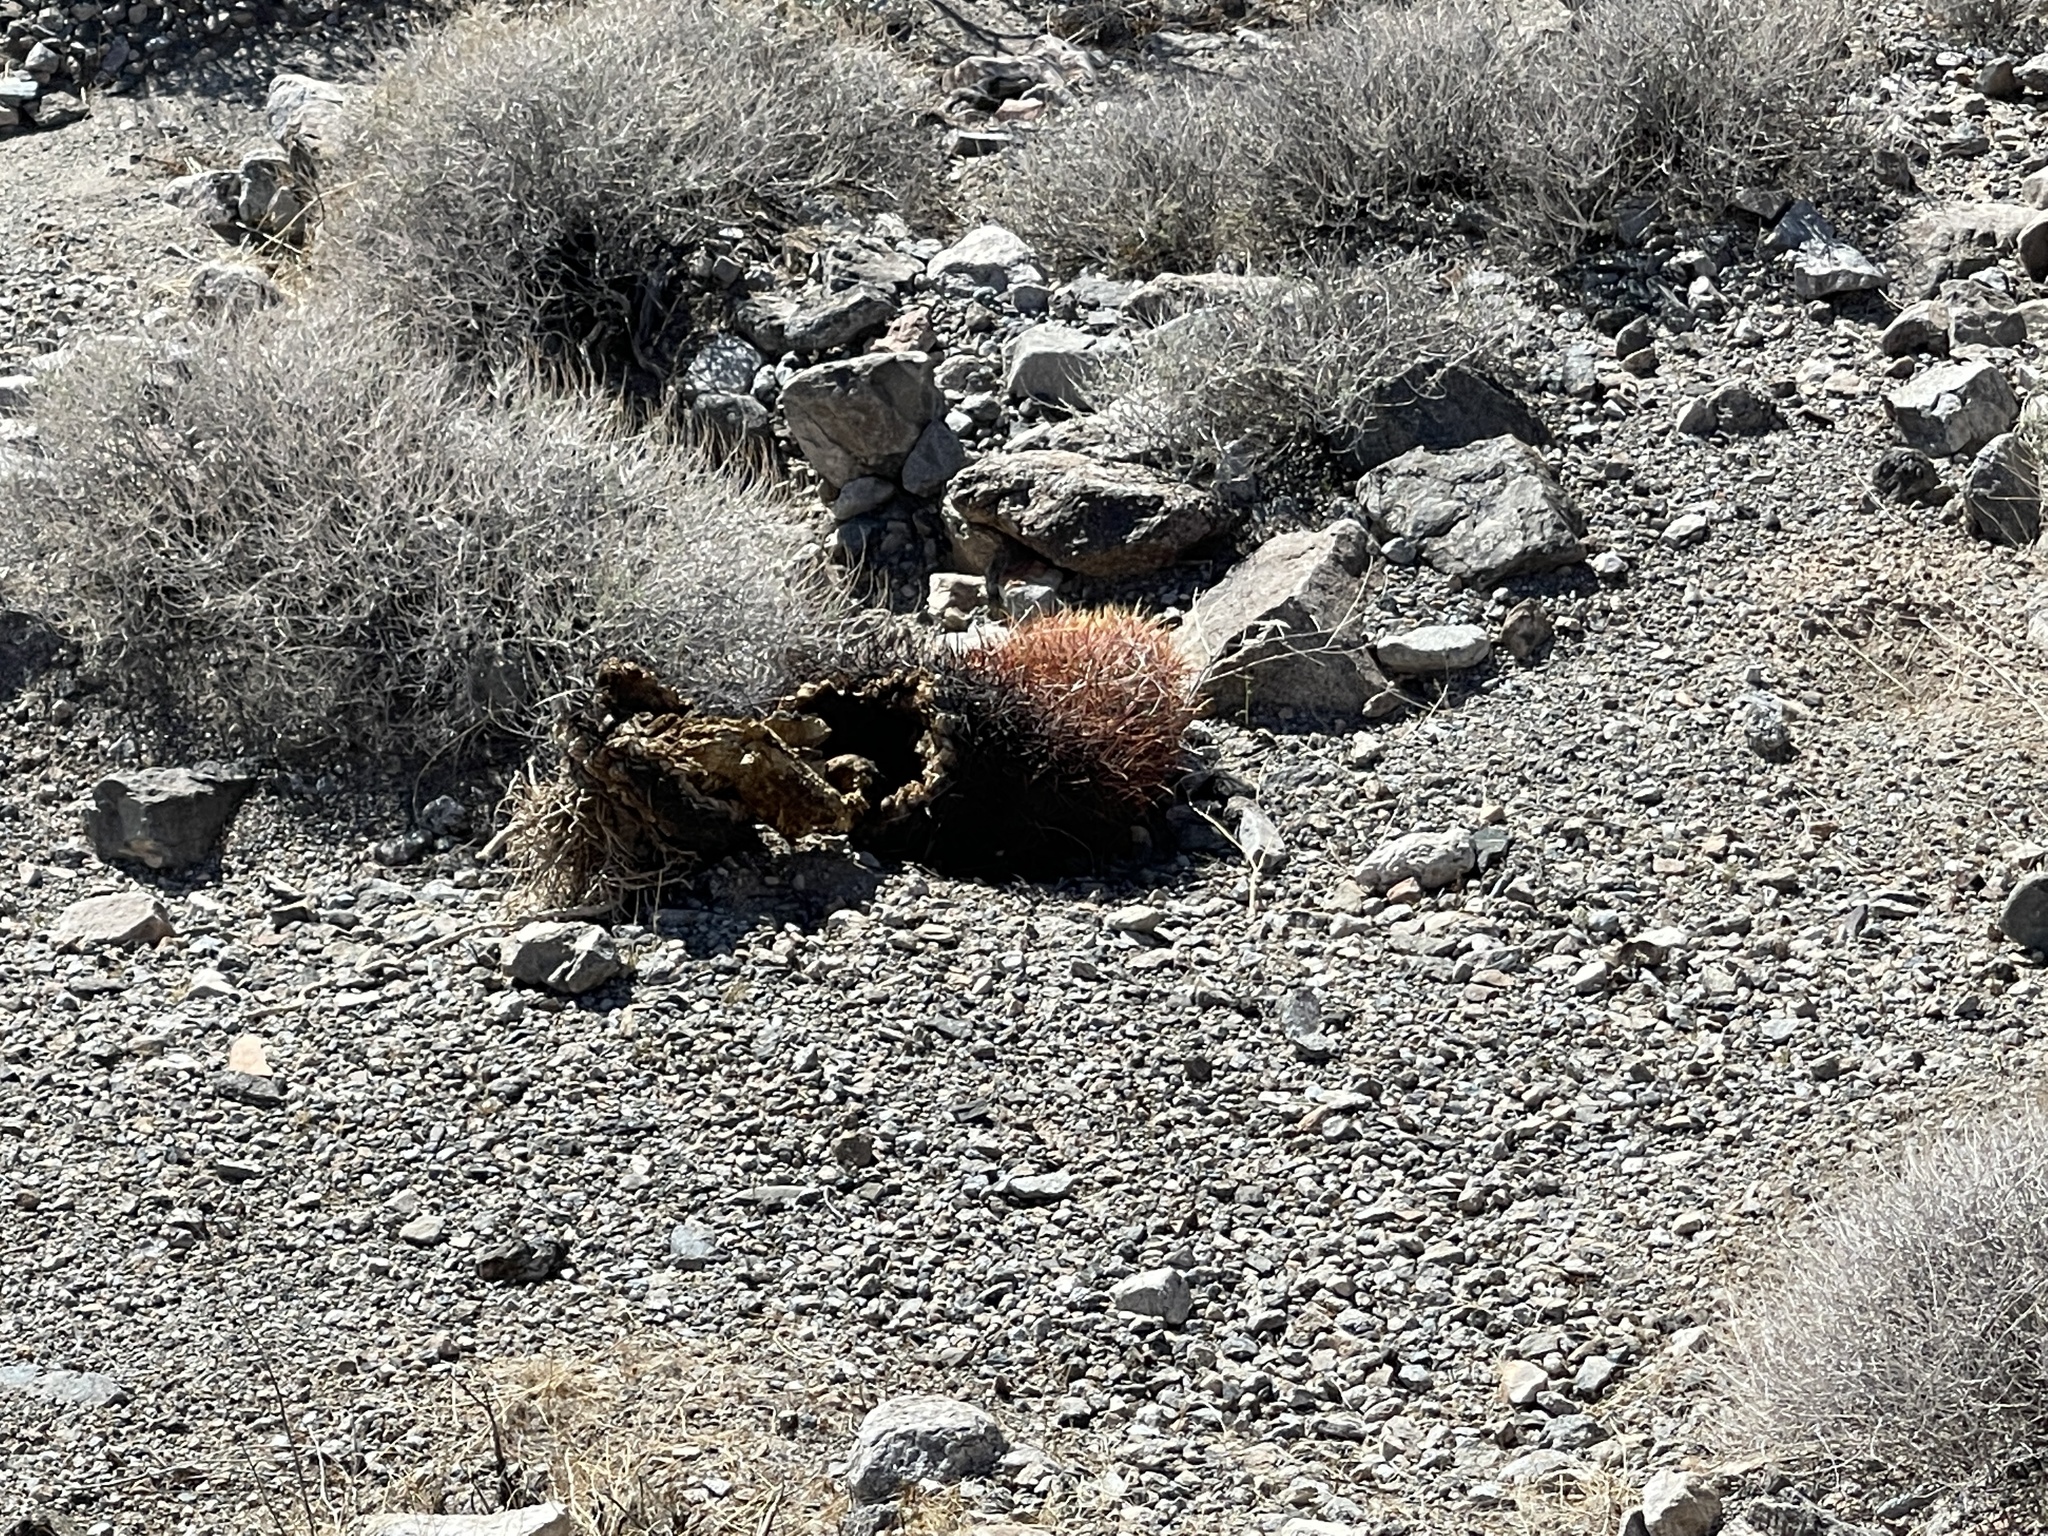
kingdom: Plantae
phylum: Tracheophyta
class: Magnoliopsida
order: Caryophyllales
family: Cactaceae
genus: Ferocactus
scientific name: Ferocactus cylindraceus
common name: California barrel cactus
